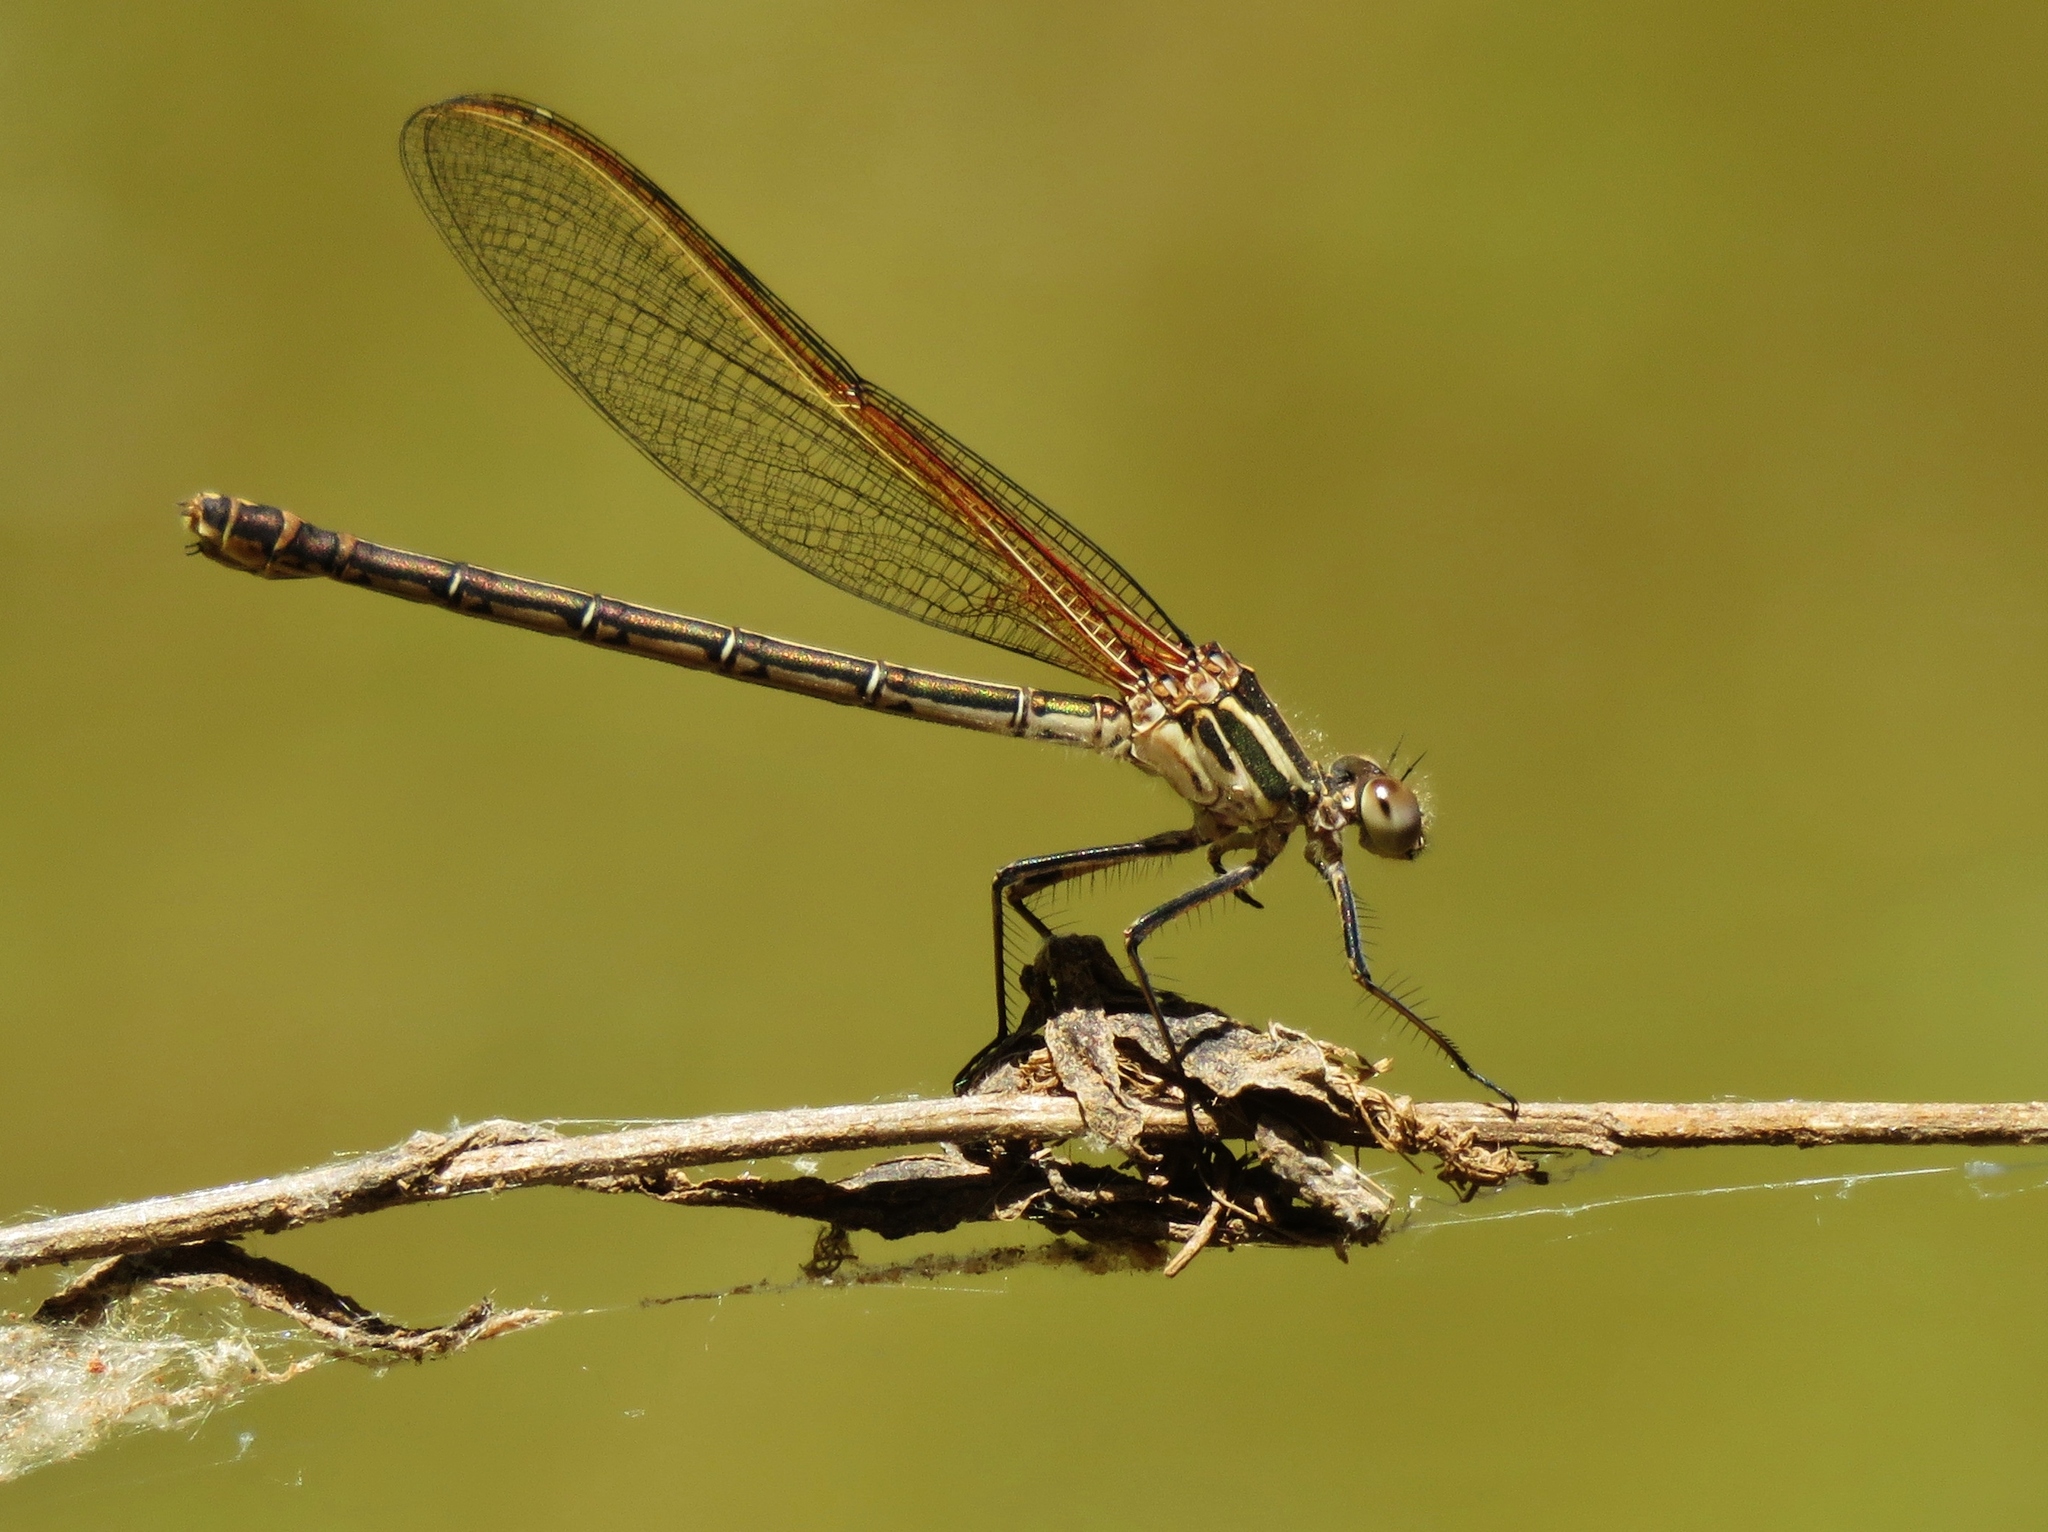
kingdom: Animalia
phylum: Arthropoda
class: Insecta
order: Odonata
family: Calopterygidae
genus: Hetaerina
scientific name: Hetaerina americana
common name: American rubyspot
